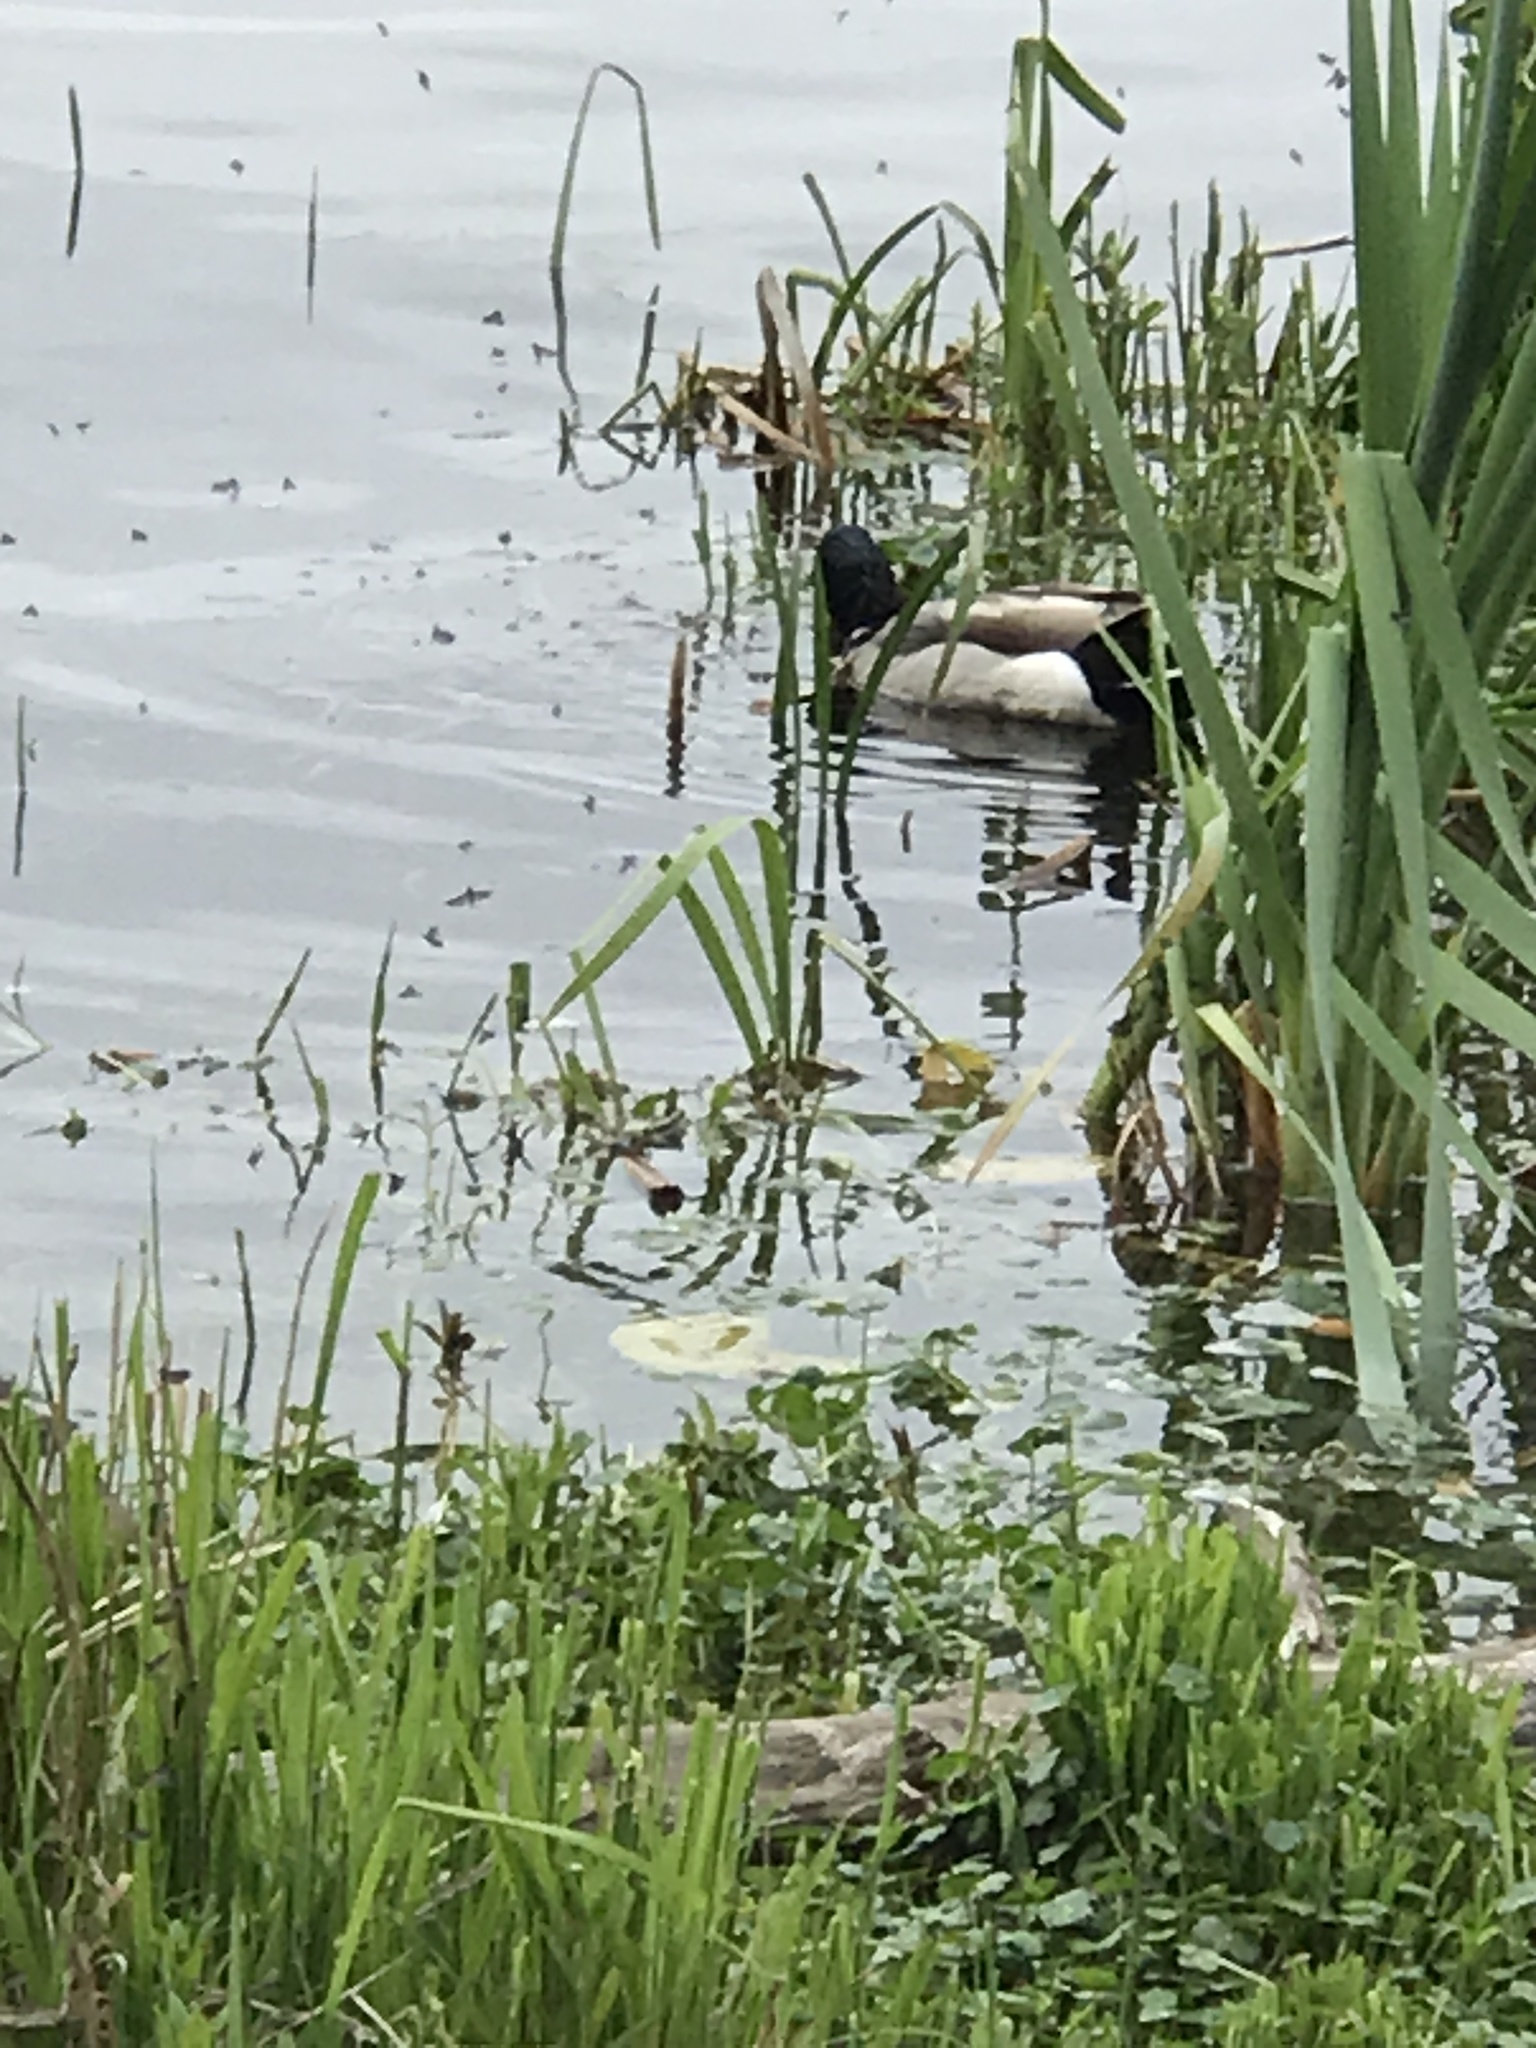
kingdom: Animalia
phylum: Chordata
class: Aves
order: Anseriformes
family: Anatidae
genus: Anas
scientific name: Anas platyrhynchos
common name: Mallard
